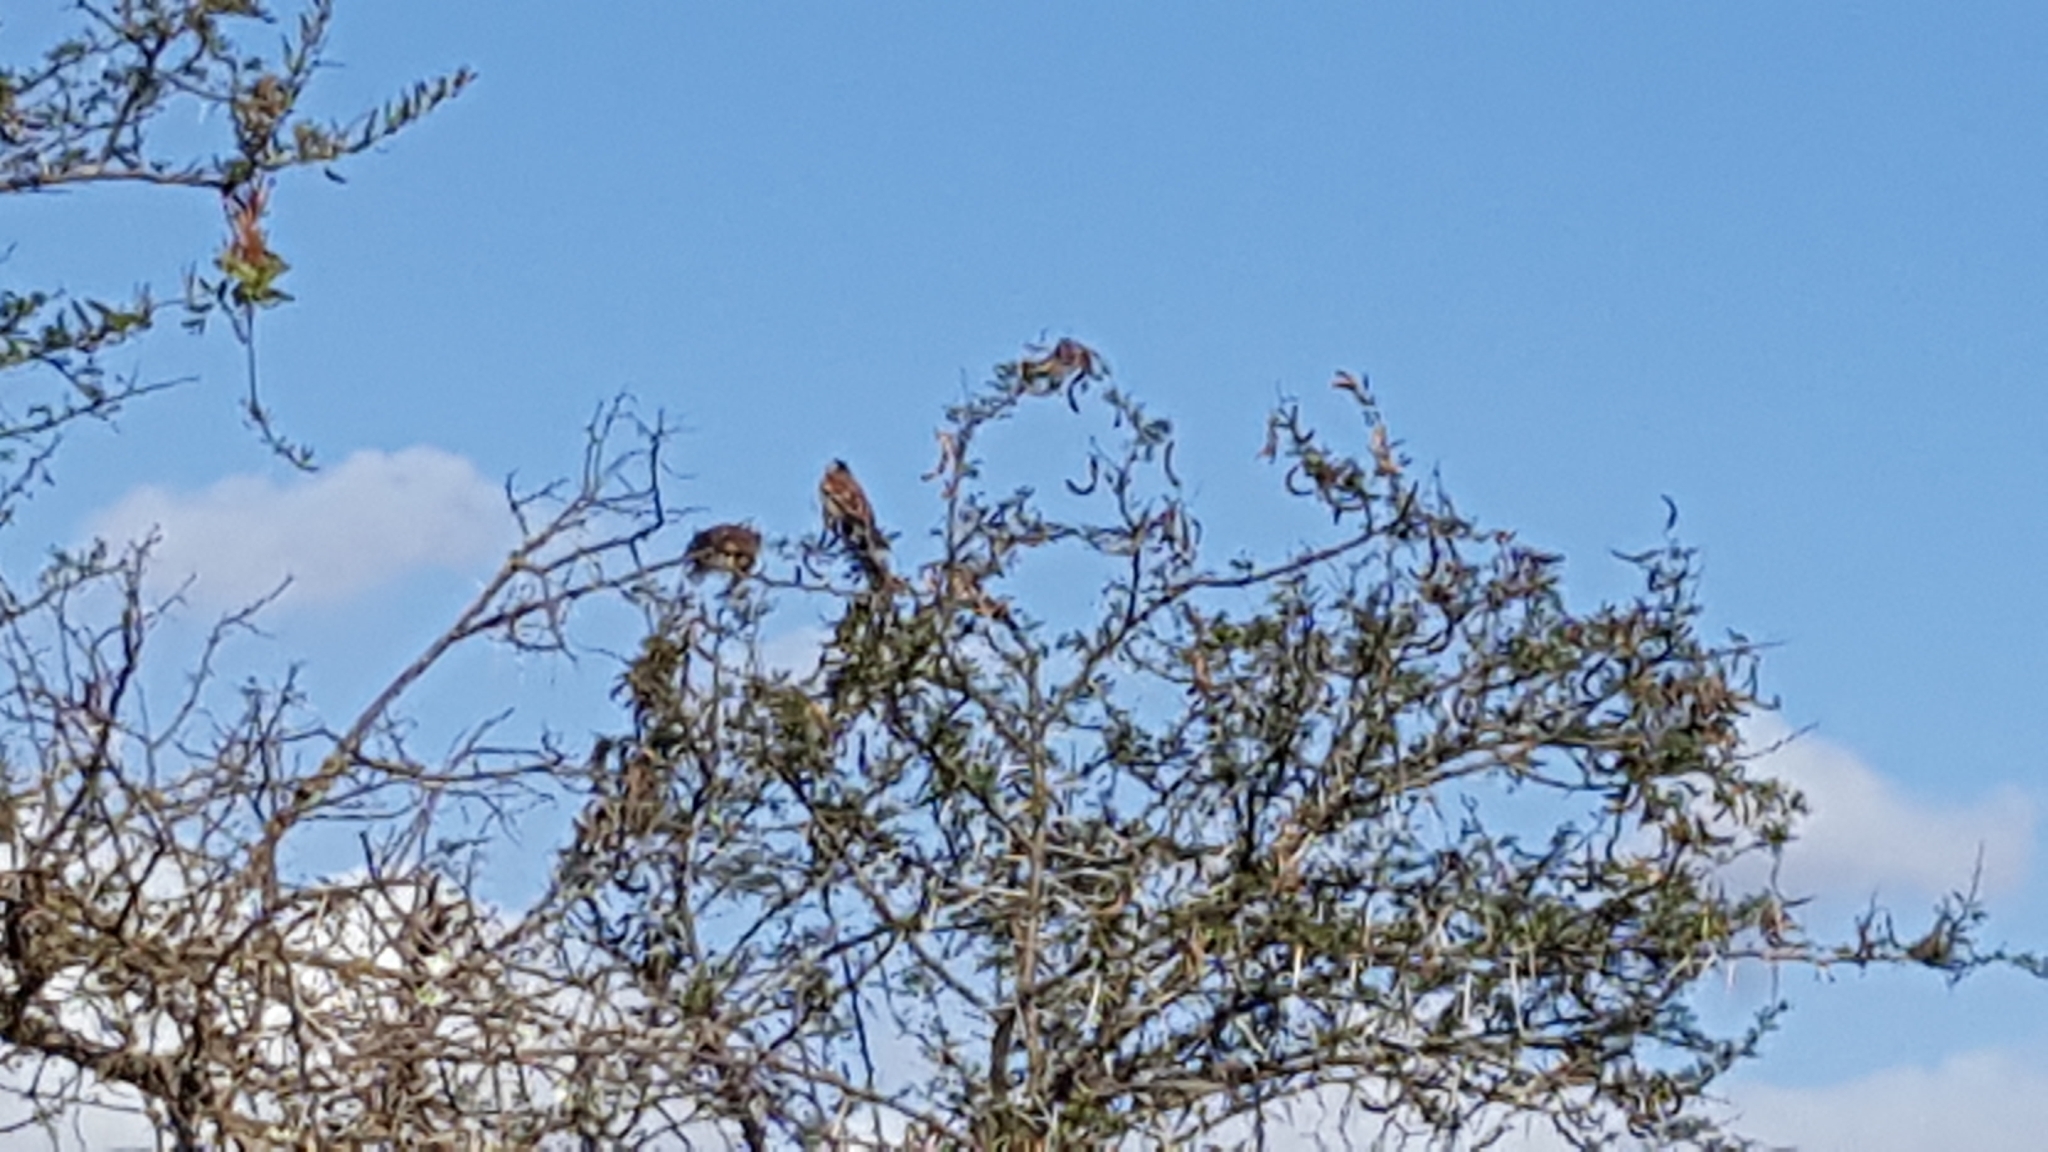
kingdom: Animalia
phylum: Chordata
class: Aves
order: Passeriformes
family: Passeridae
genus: Passer
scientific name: Passer melanurus
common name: Cape sparrow
